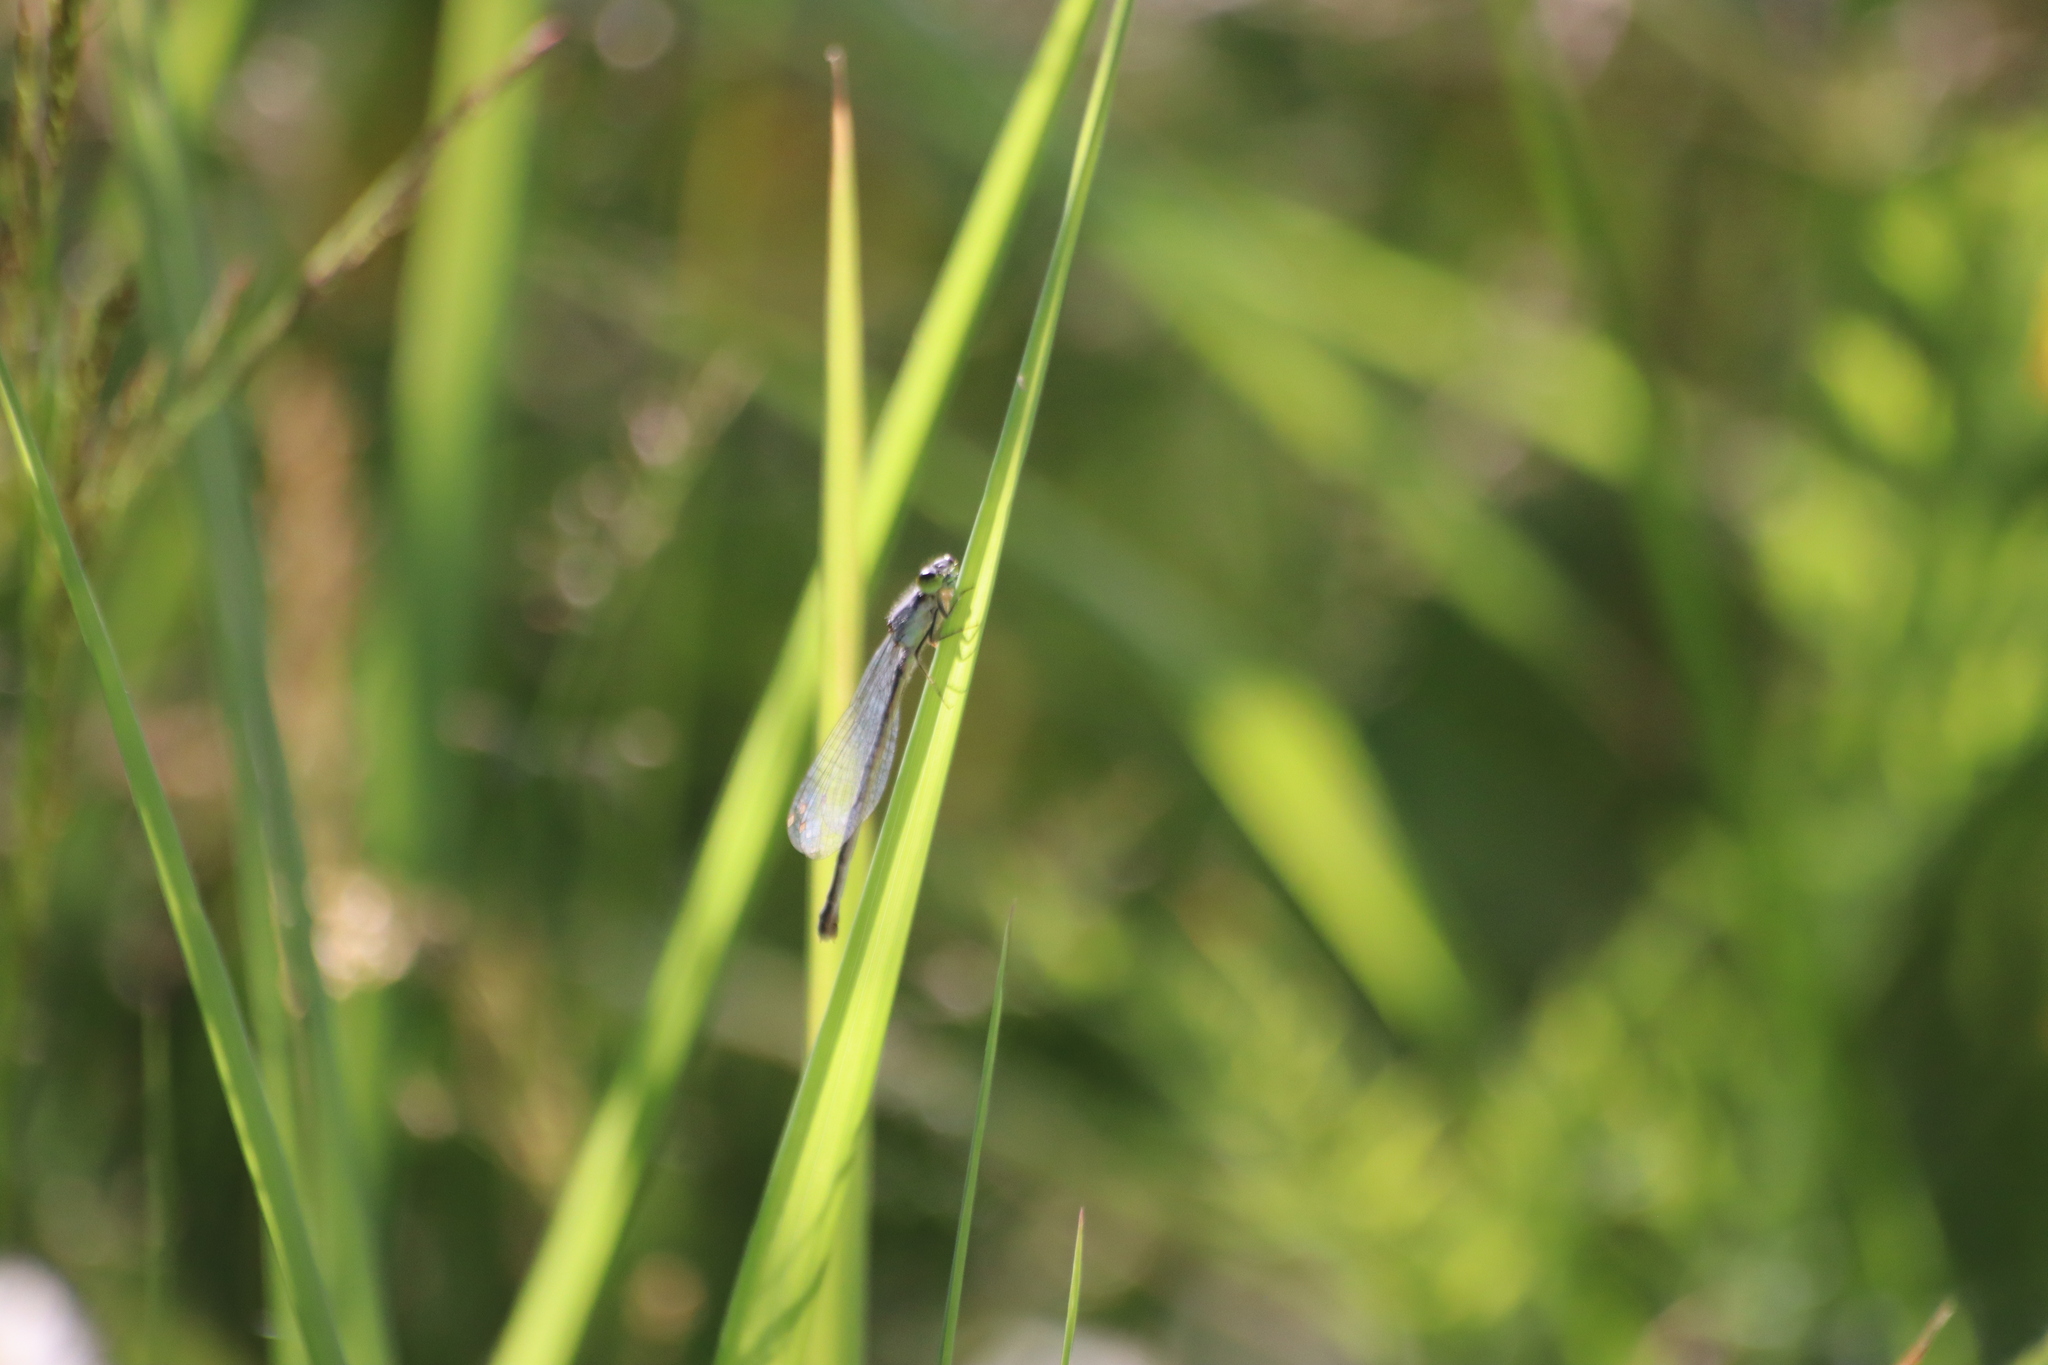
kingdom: Animalia
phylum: Arthropoda
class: Insecta
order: Odonata
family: Coenagrionidae
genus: Ischnura
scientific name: Ischnura verticalis
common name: Eastern forktail
